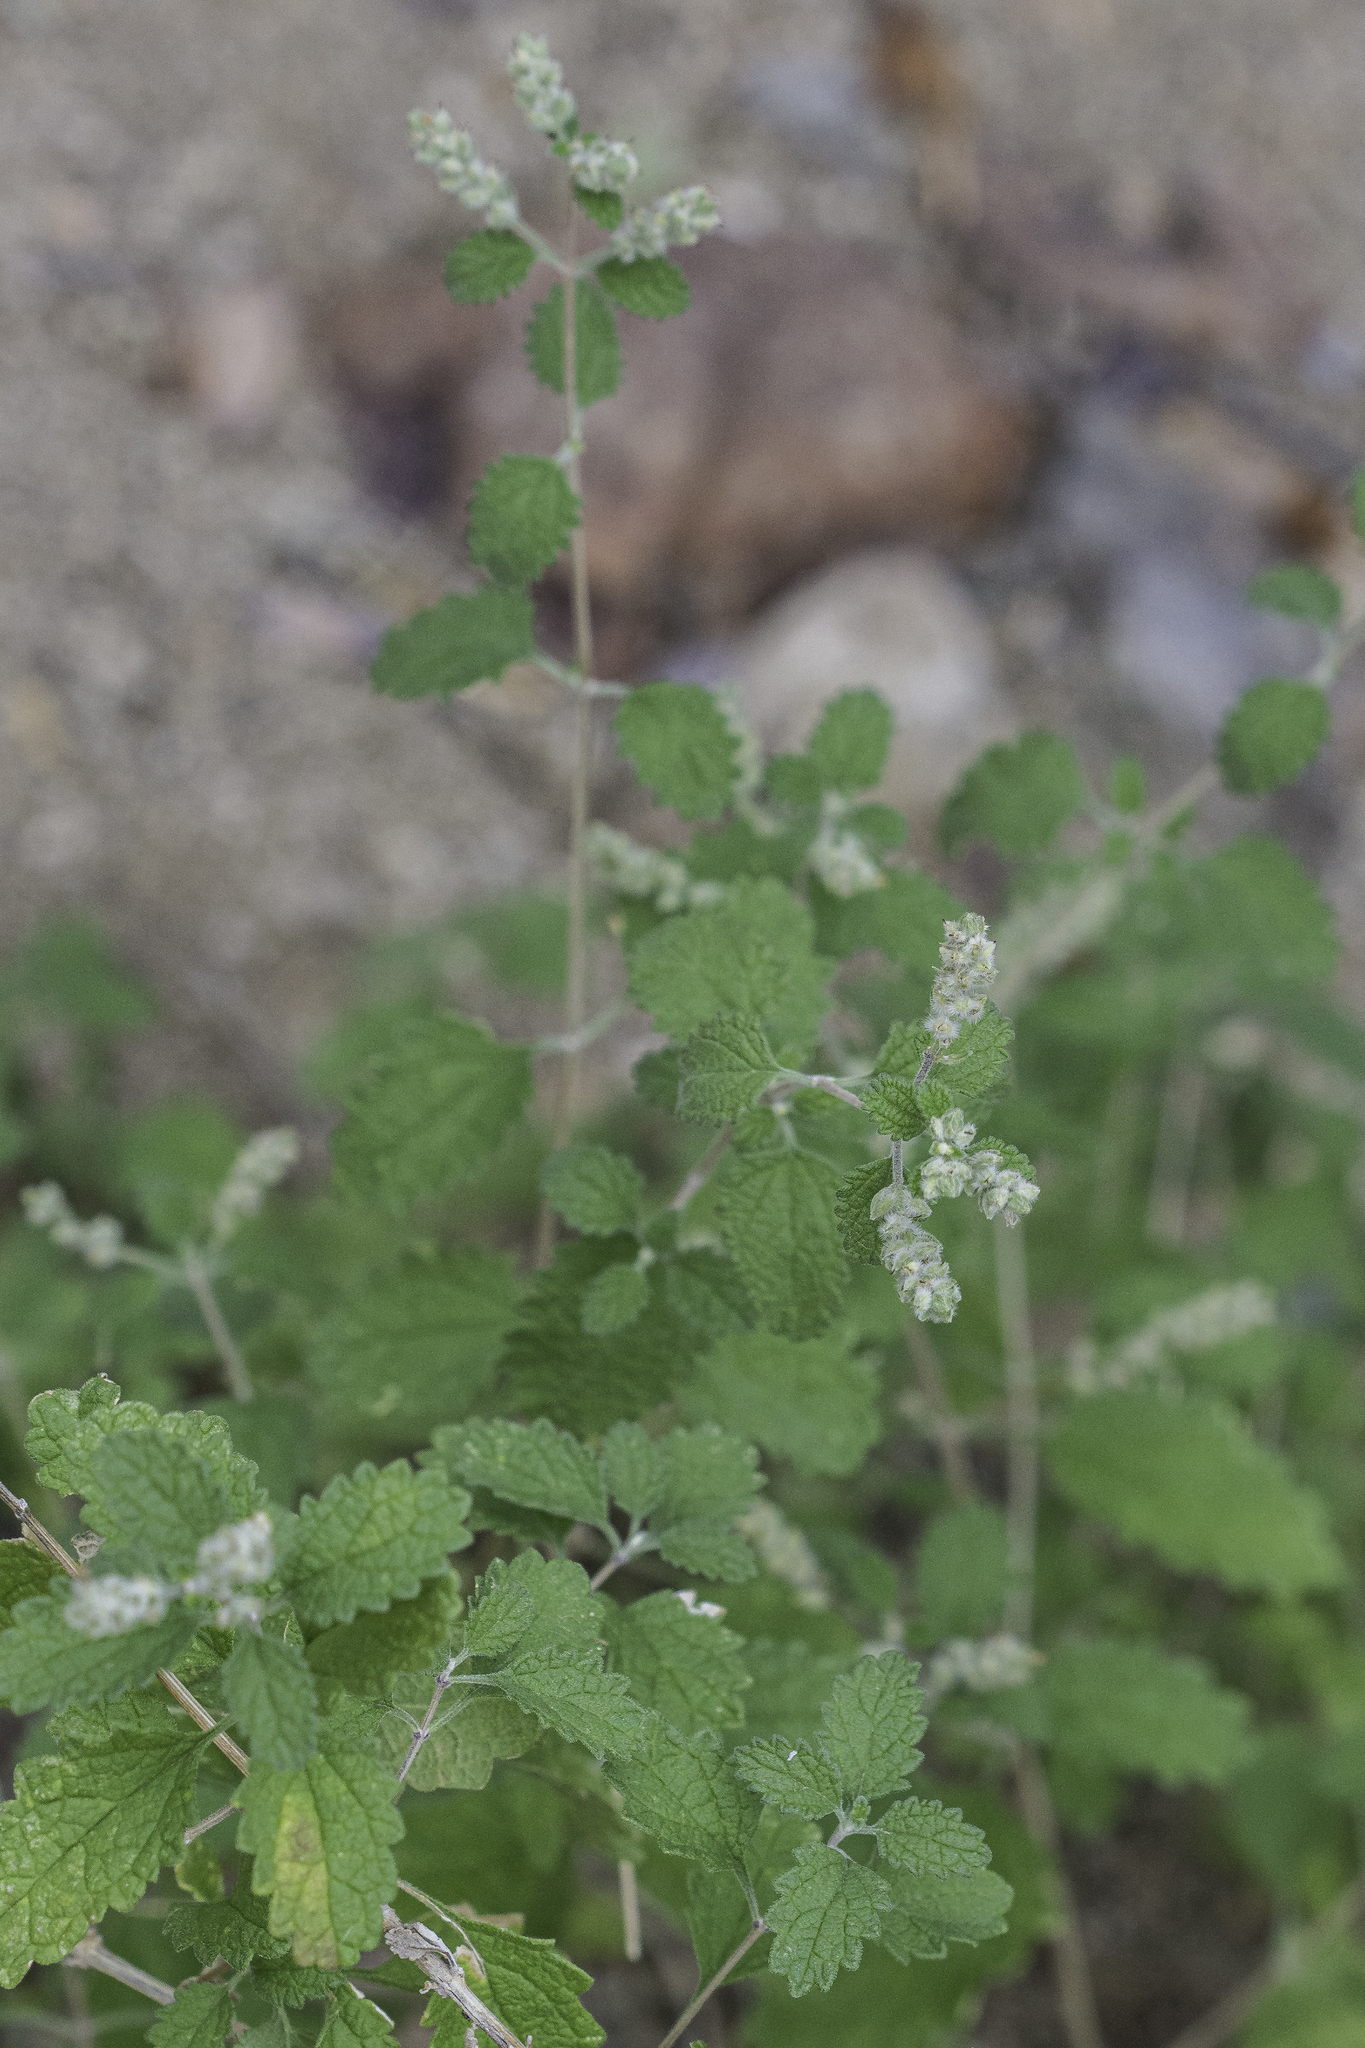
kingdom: Plantae
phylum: Tracheophyta
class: Magnoliopsida
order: Lamiales
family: Verbenaceae
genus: Aloysia
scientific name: Aloysia wrightii
